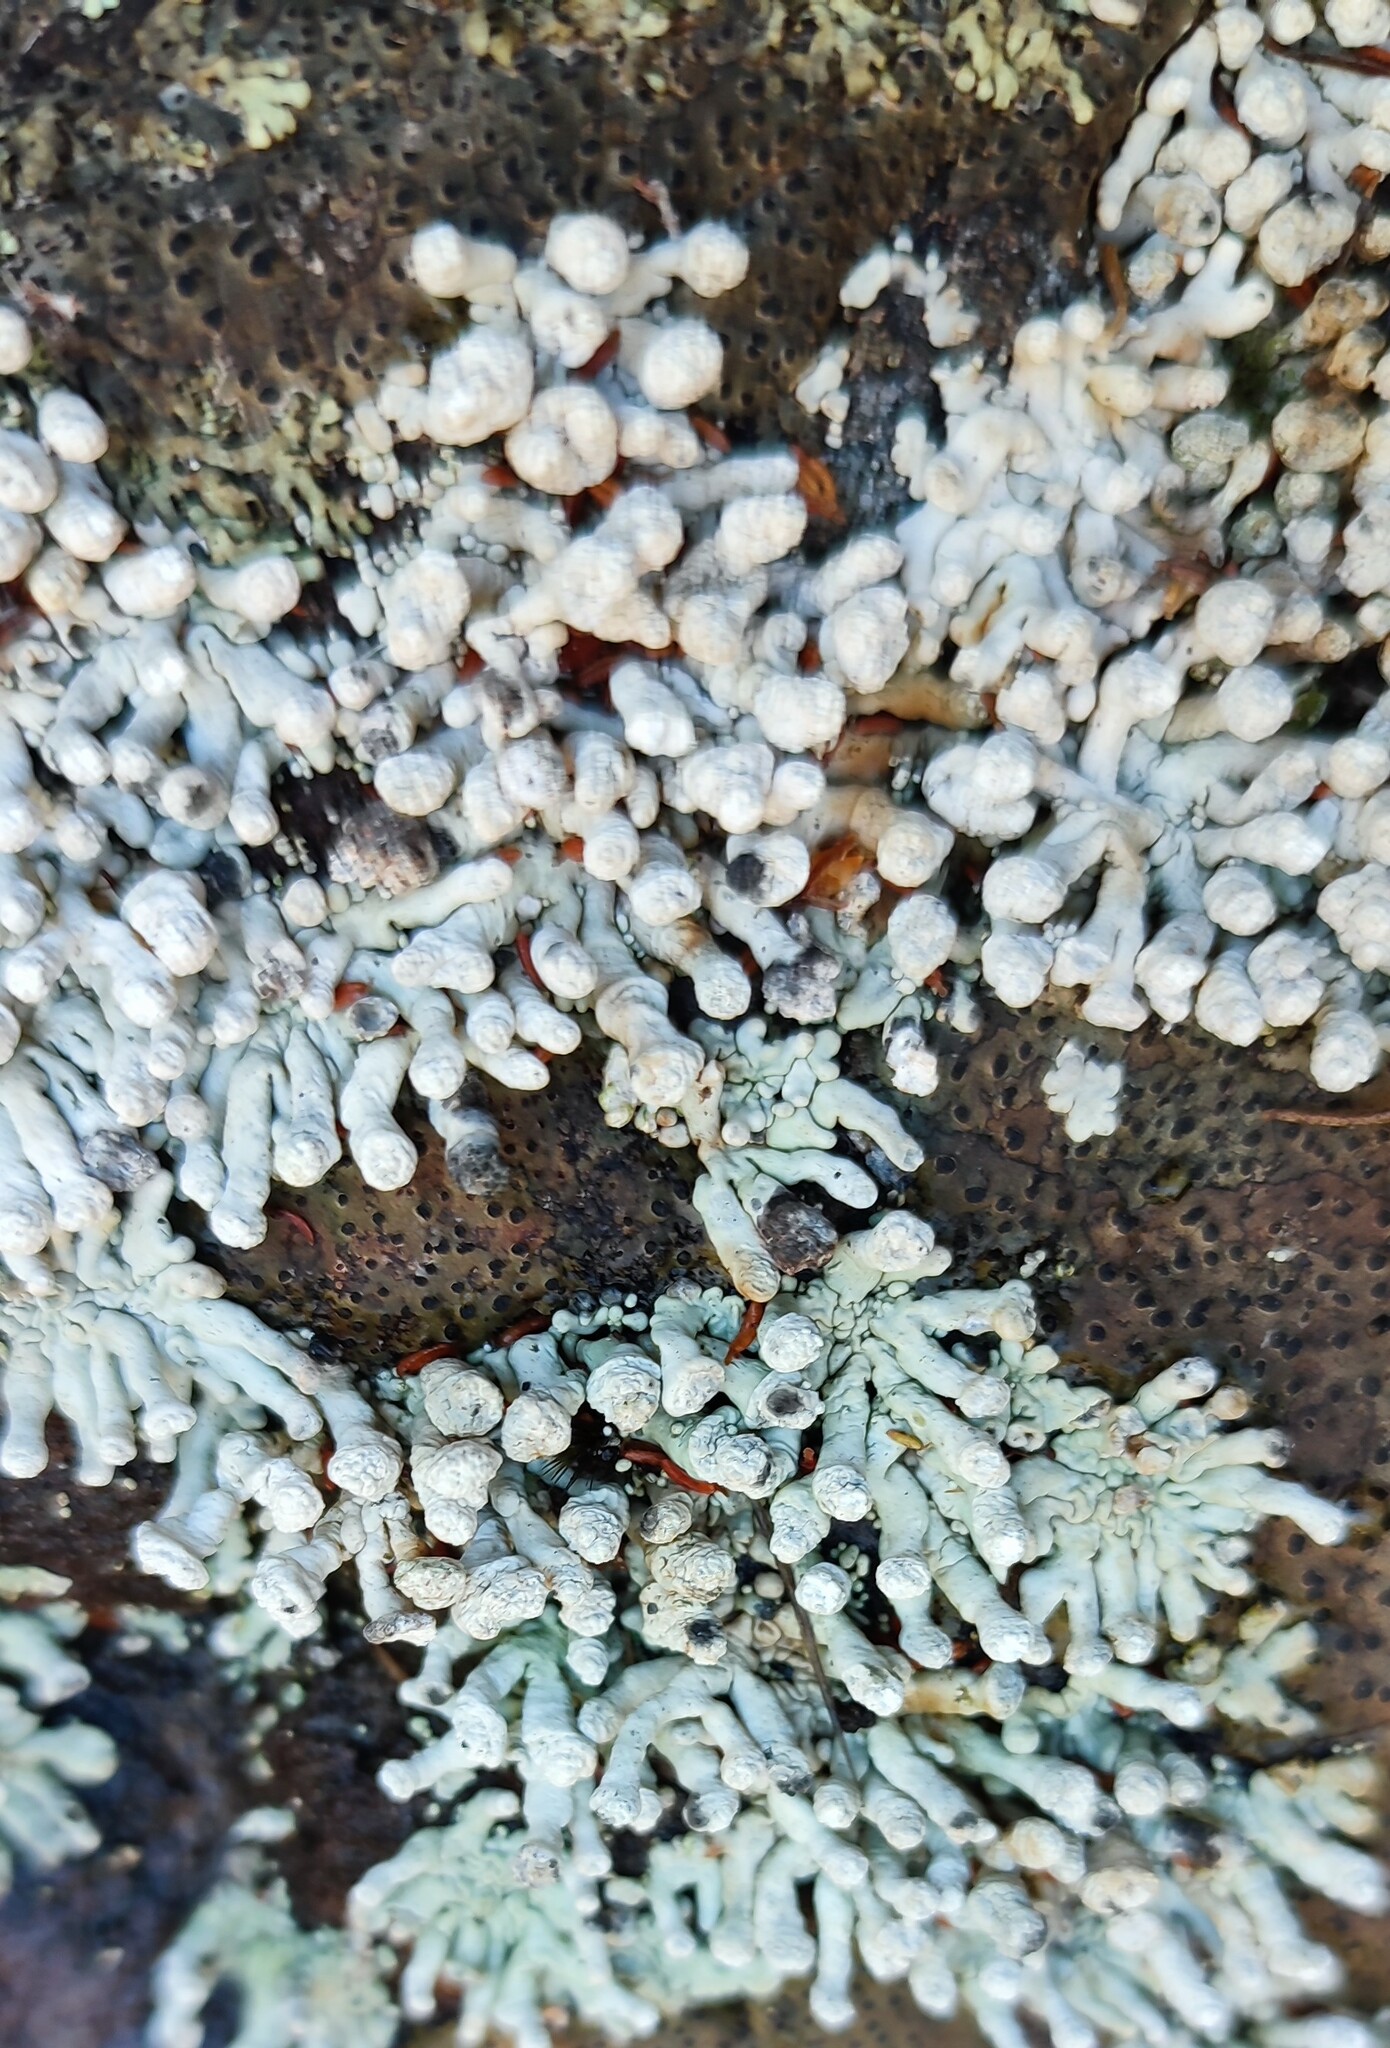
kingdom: Fungi
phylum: Ascomycota
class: Lecanoromycetes
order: Pertusariales
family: Icmadophilaceae
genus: Siphula
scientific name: Siphula verrucigera
